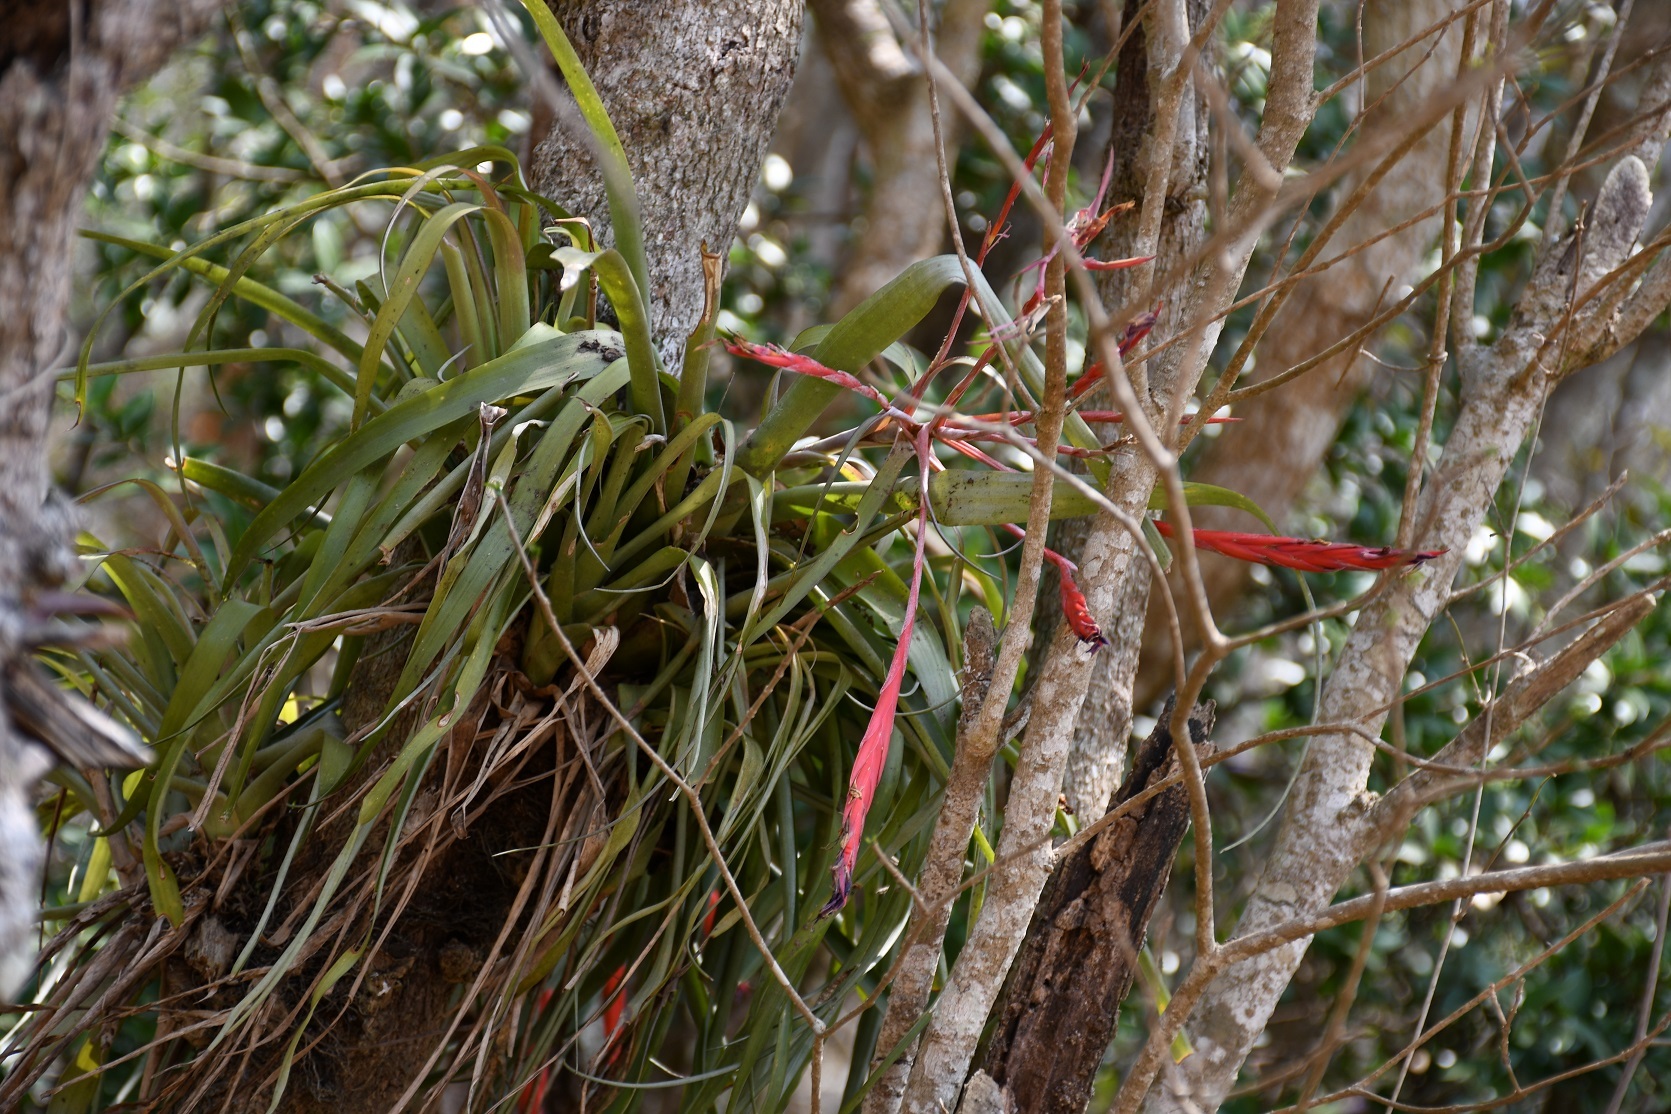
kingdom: Plantae
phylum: Tracheophyta
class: Liliopsida
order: Poales
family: Bromeliaceae
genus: Tillandsia
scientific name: Tillandsia flabellata
